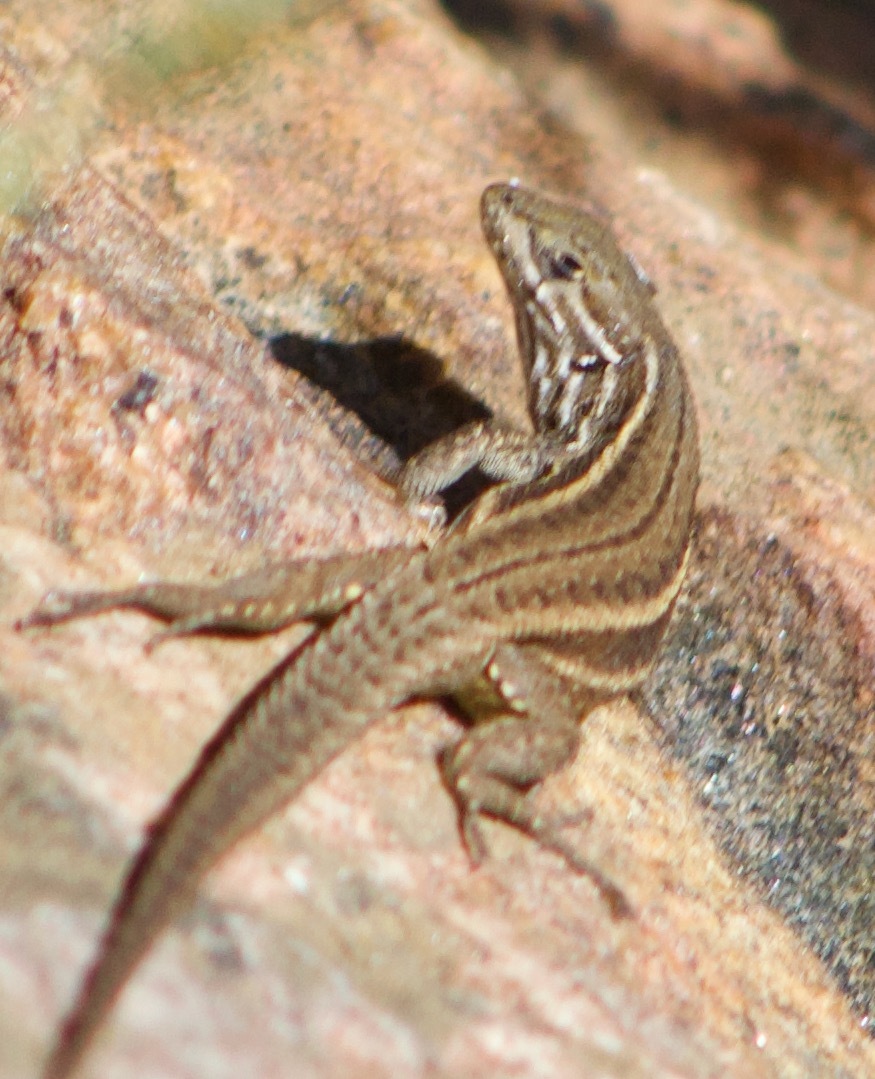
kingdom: Animalia
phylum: Chordata
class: Squamata
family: Liolaemidae
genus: Liolaemus
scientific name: Liolaemus fuscus
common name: Brown tree iguana
